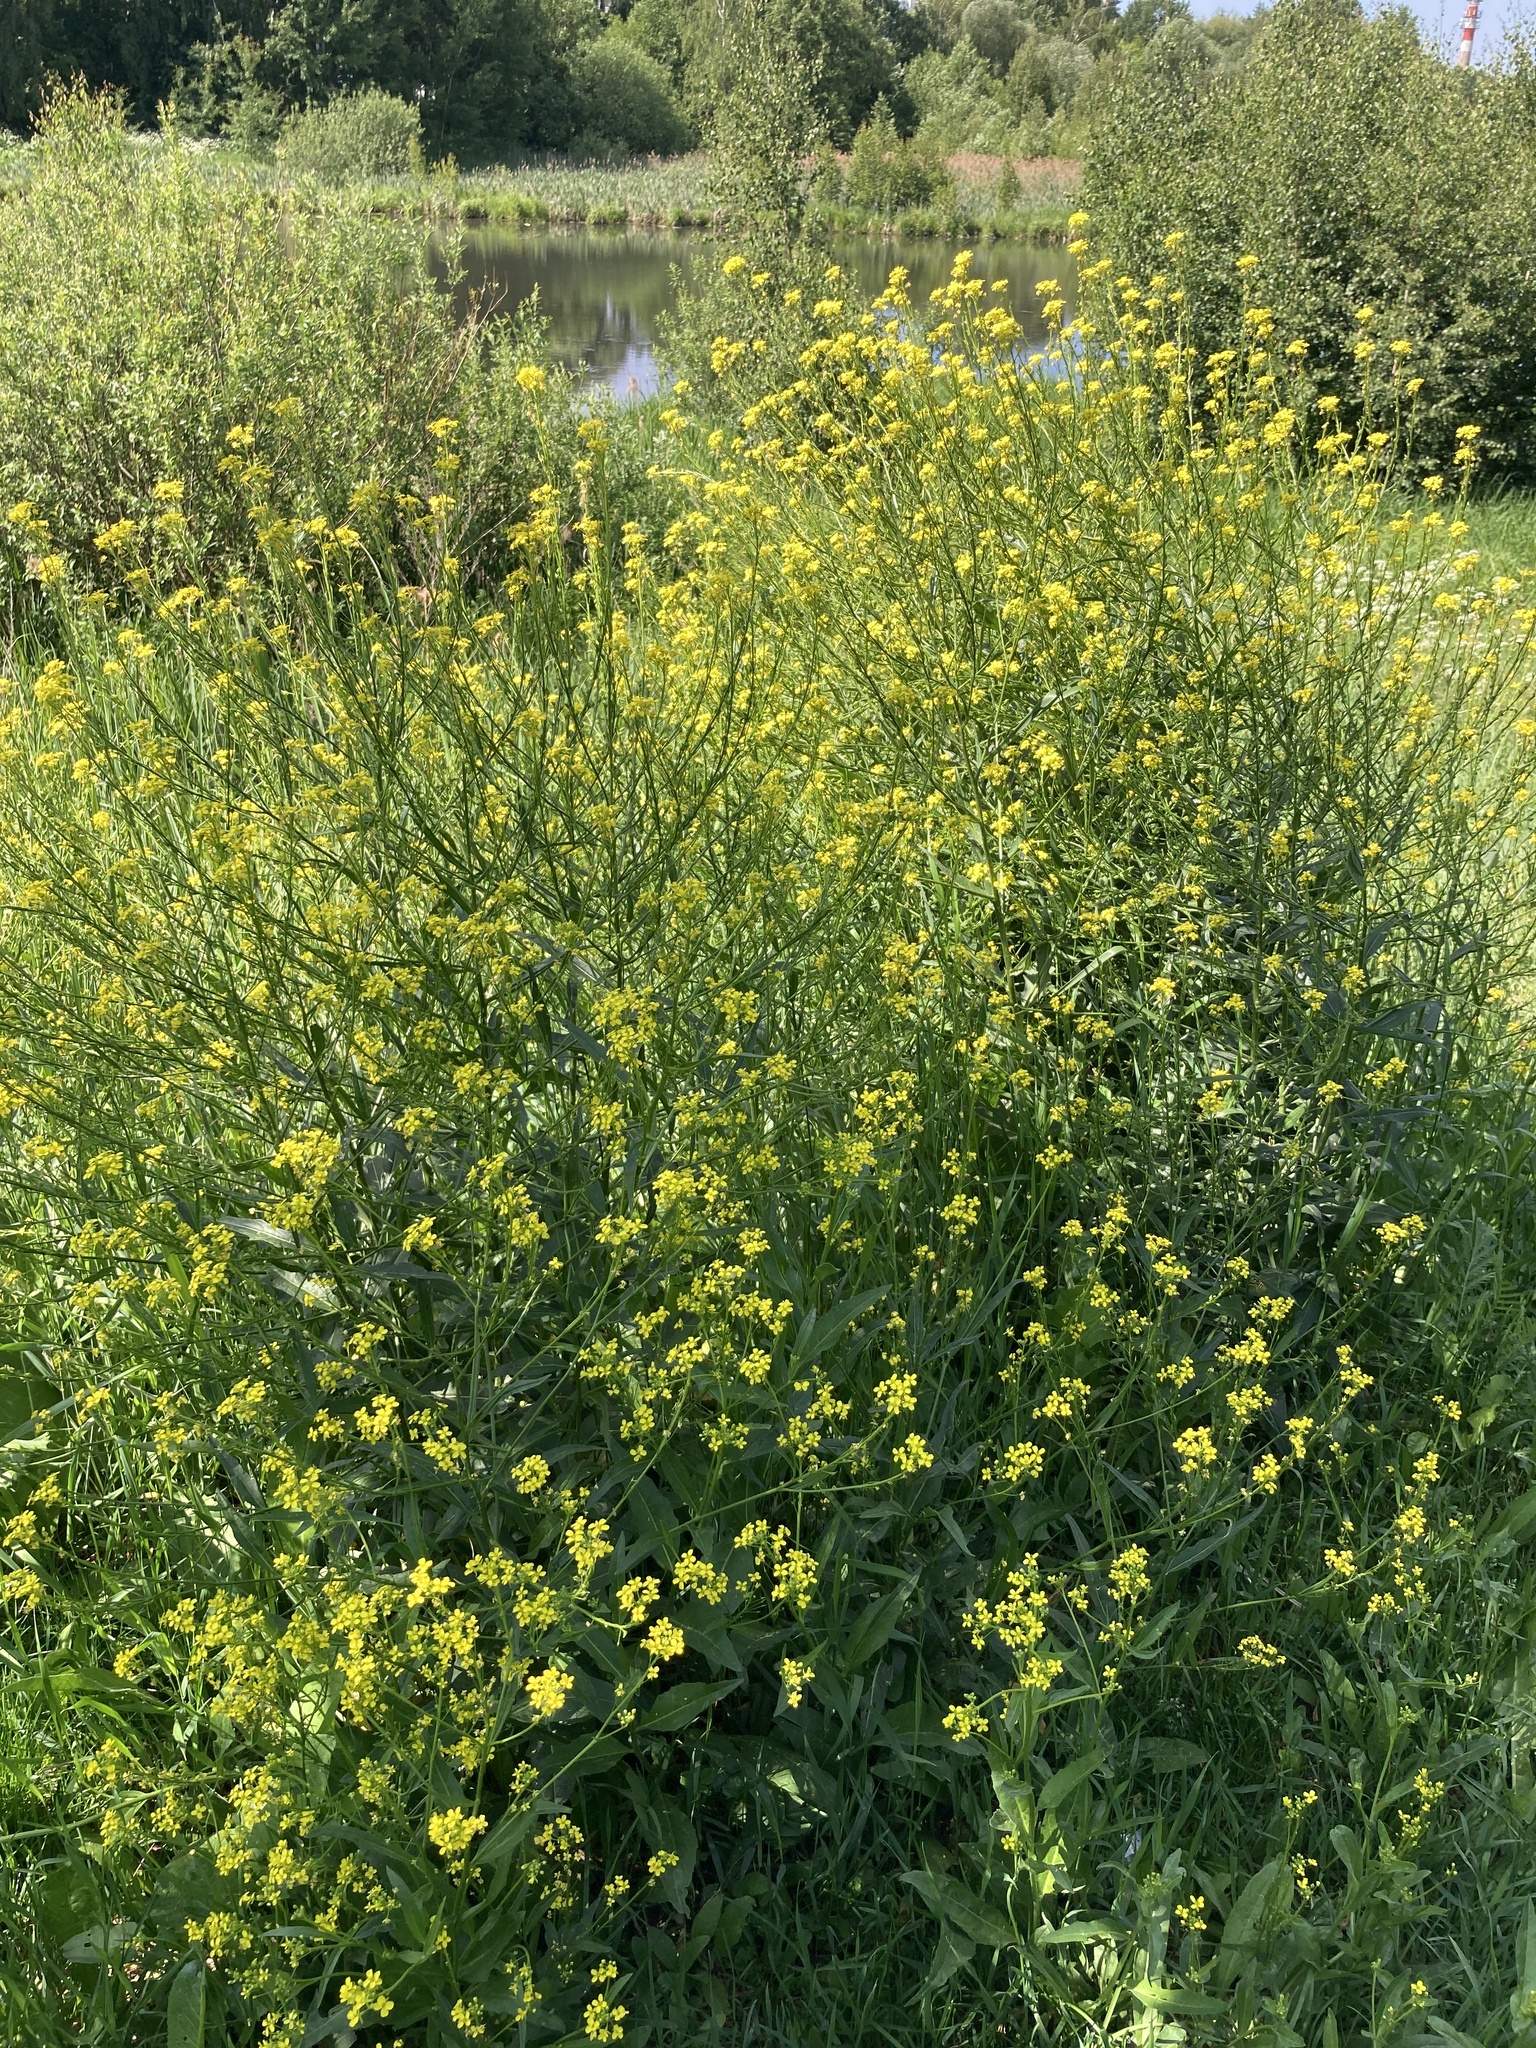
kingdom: Plantae
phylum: Tracheophyta
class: Magnoliopsida
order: Brassicales
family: Brassicaceae
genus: Bunias
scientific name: Bunias orientalis
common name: Warty-cabbage
